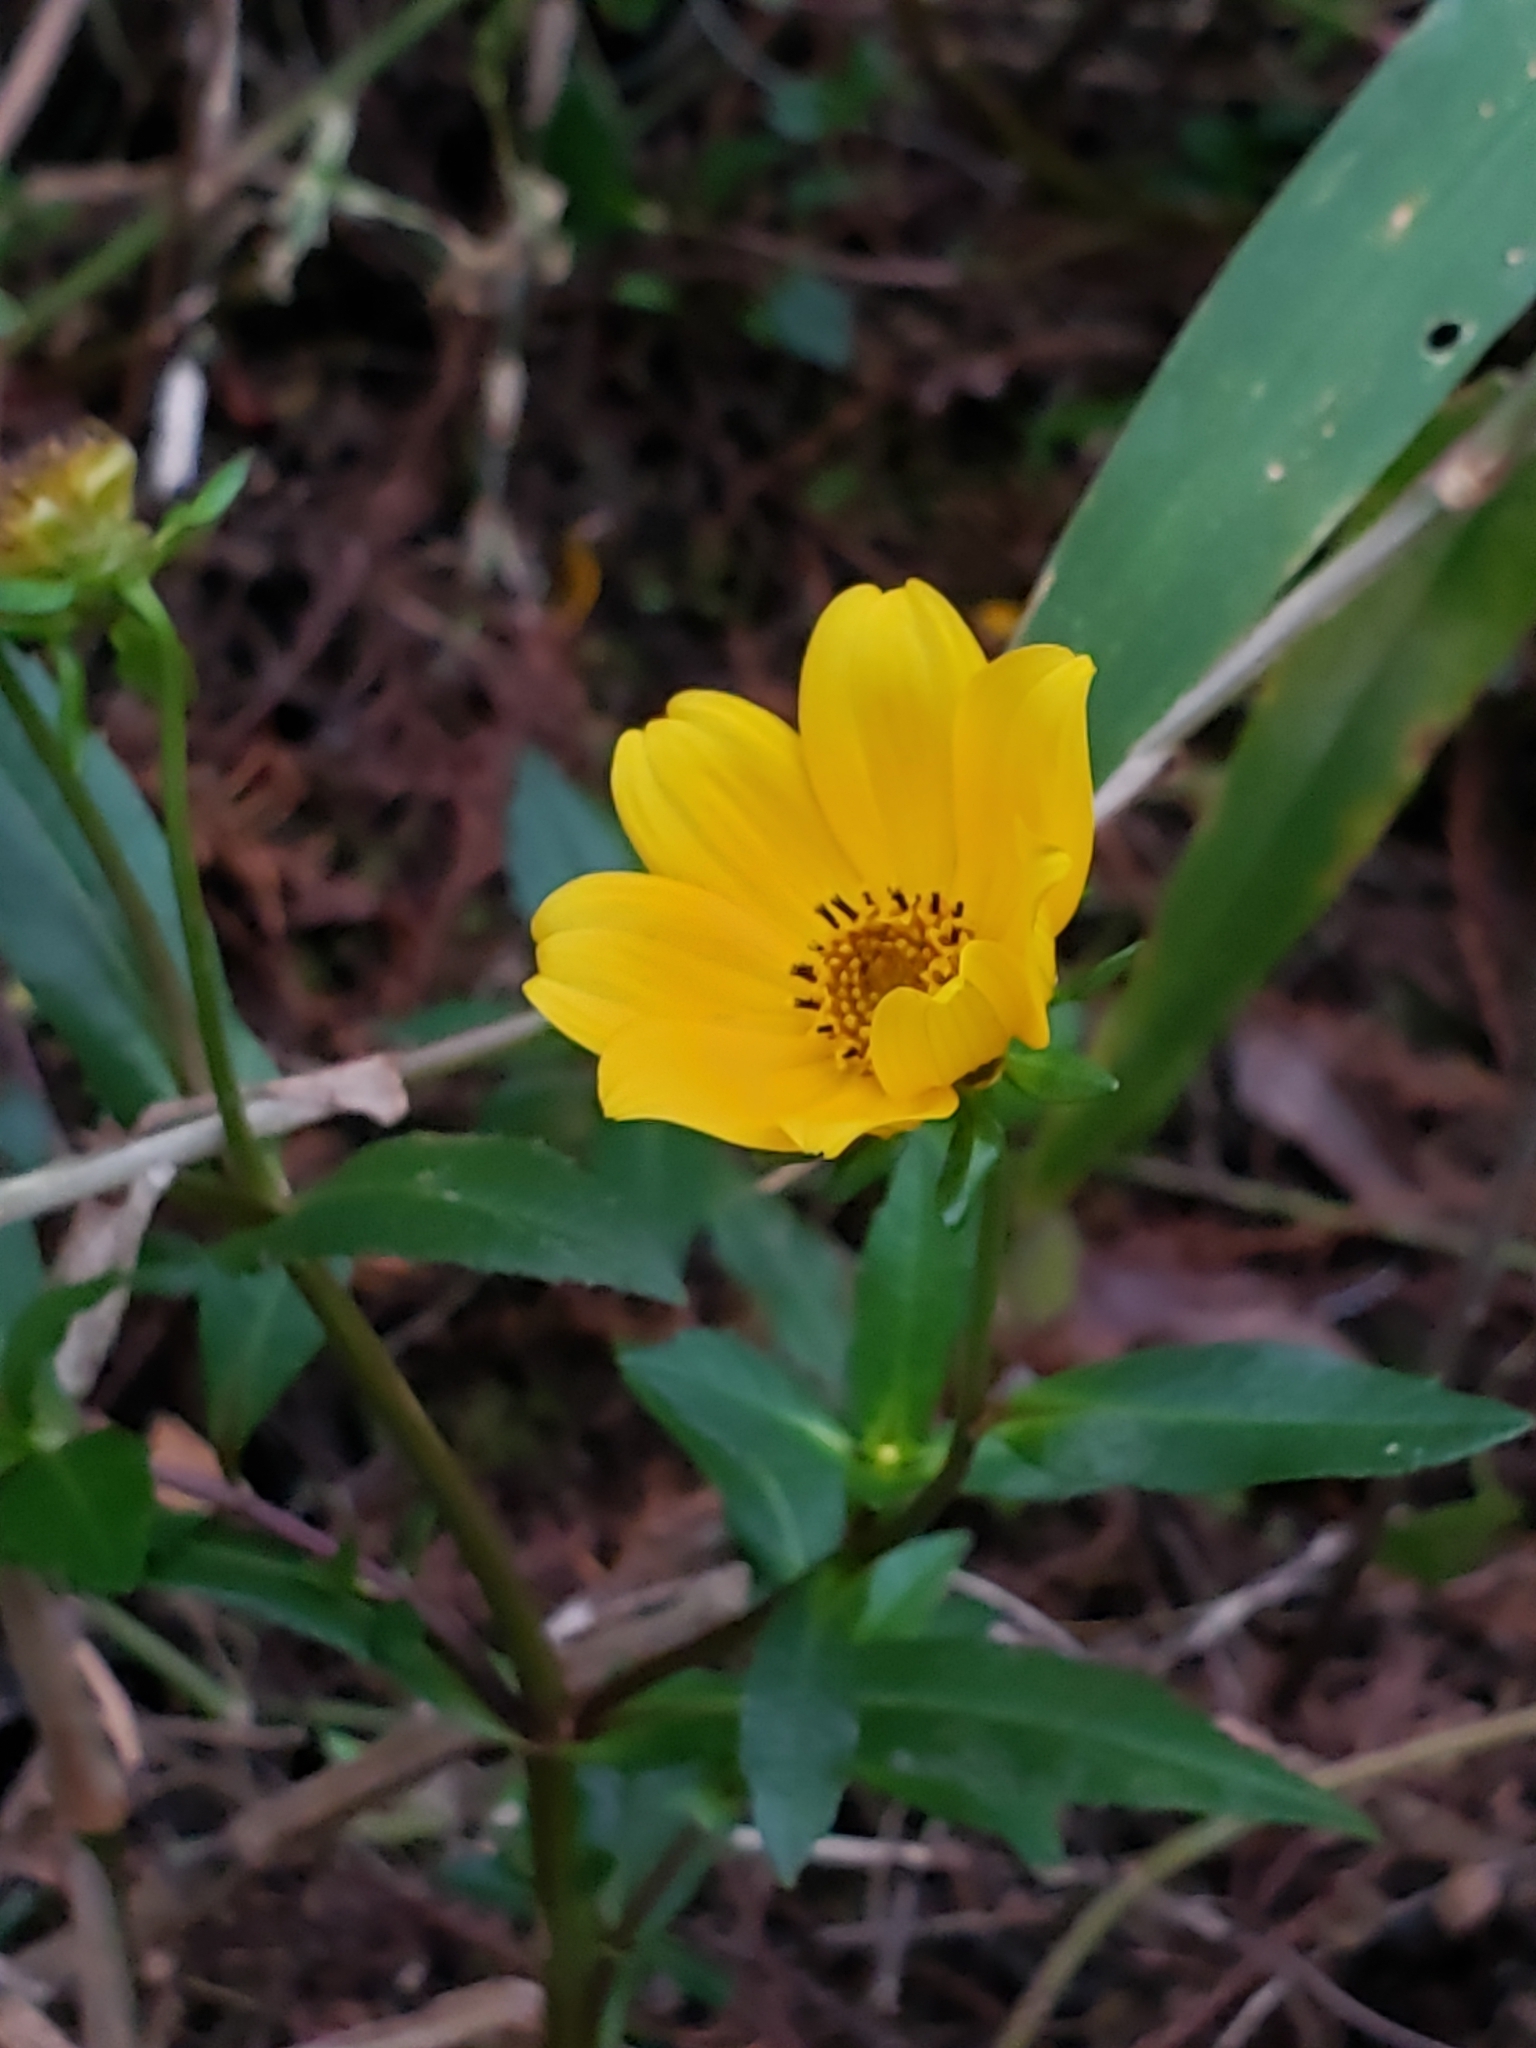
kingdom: Plantae
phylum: Tracheophyta
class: Magnoliopsida
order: Asterales
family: Asteraceae
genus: Bidens
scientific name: Bidens laevis
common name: Larger bur-marigold
